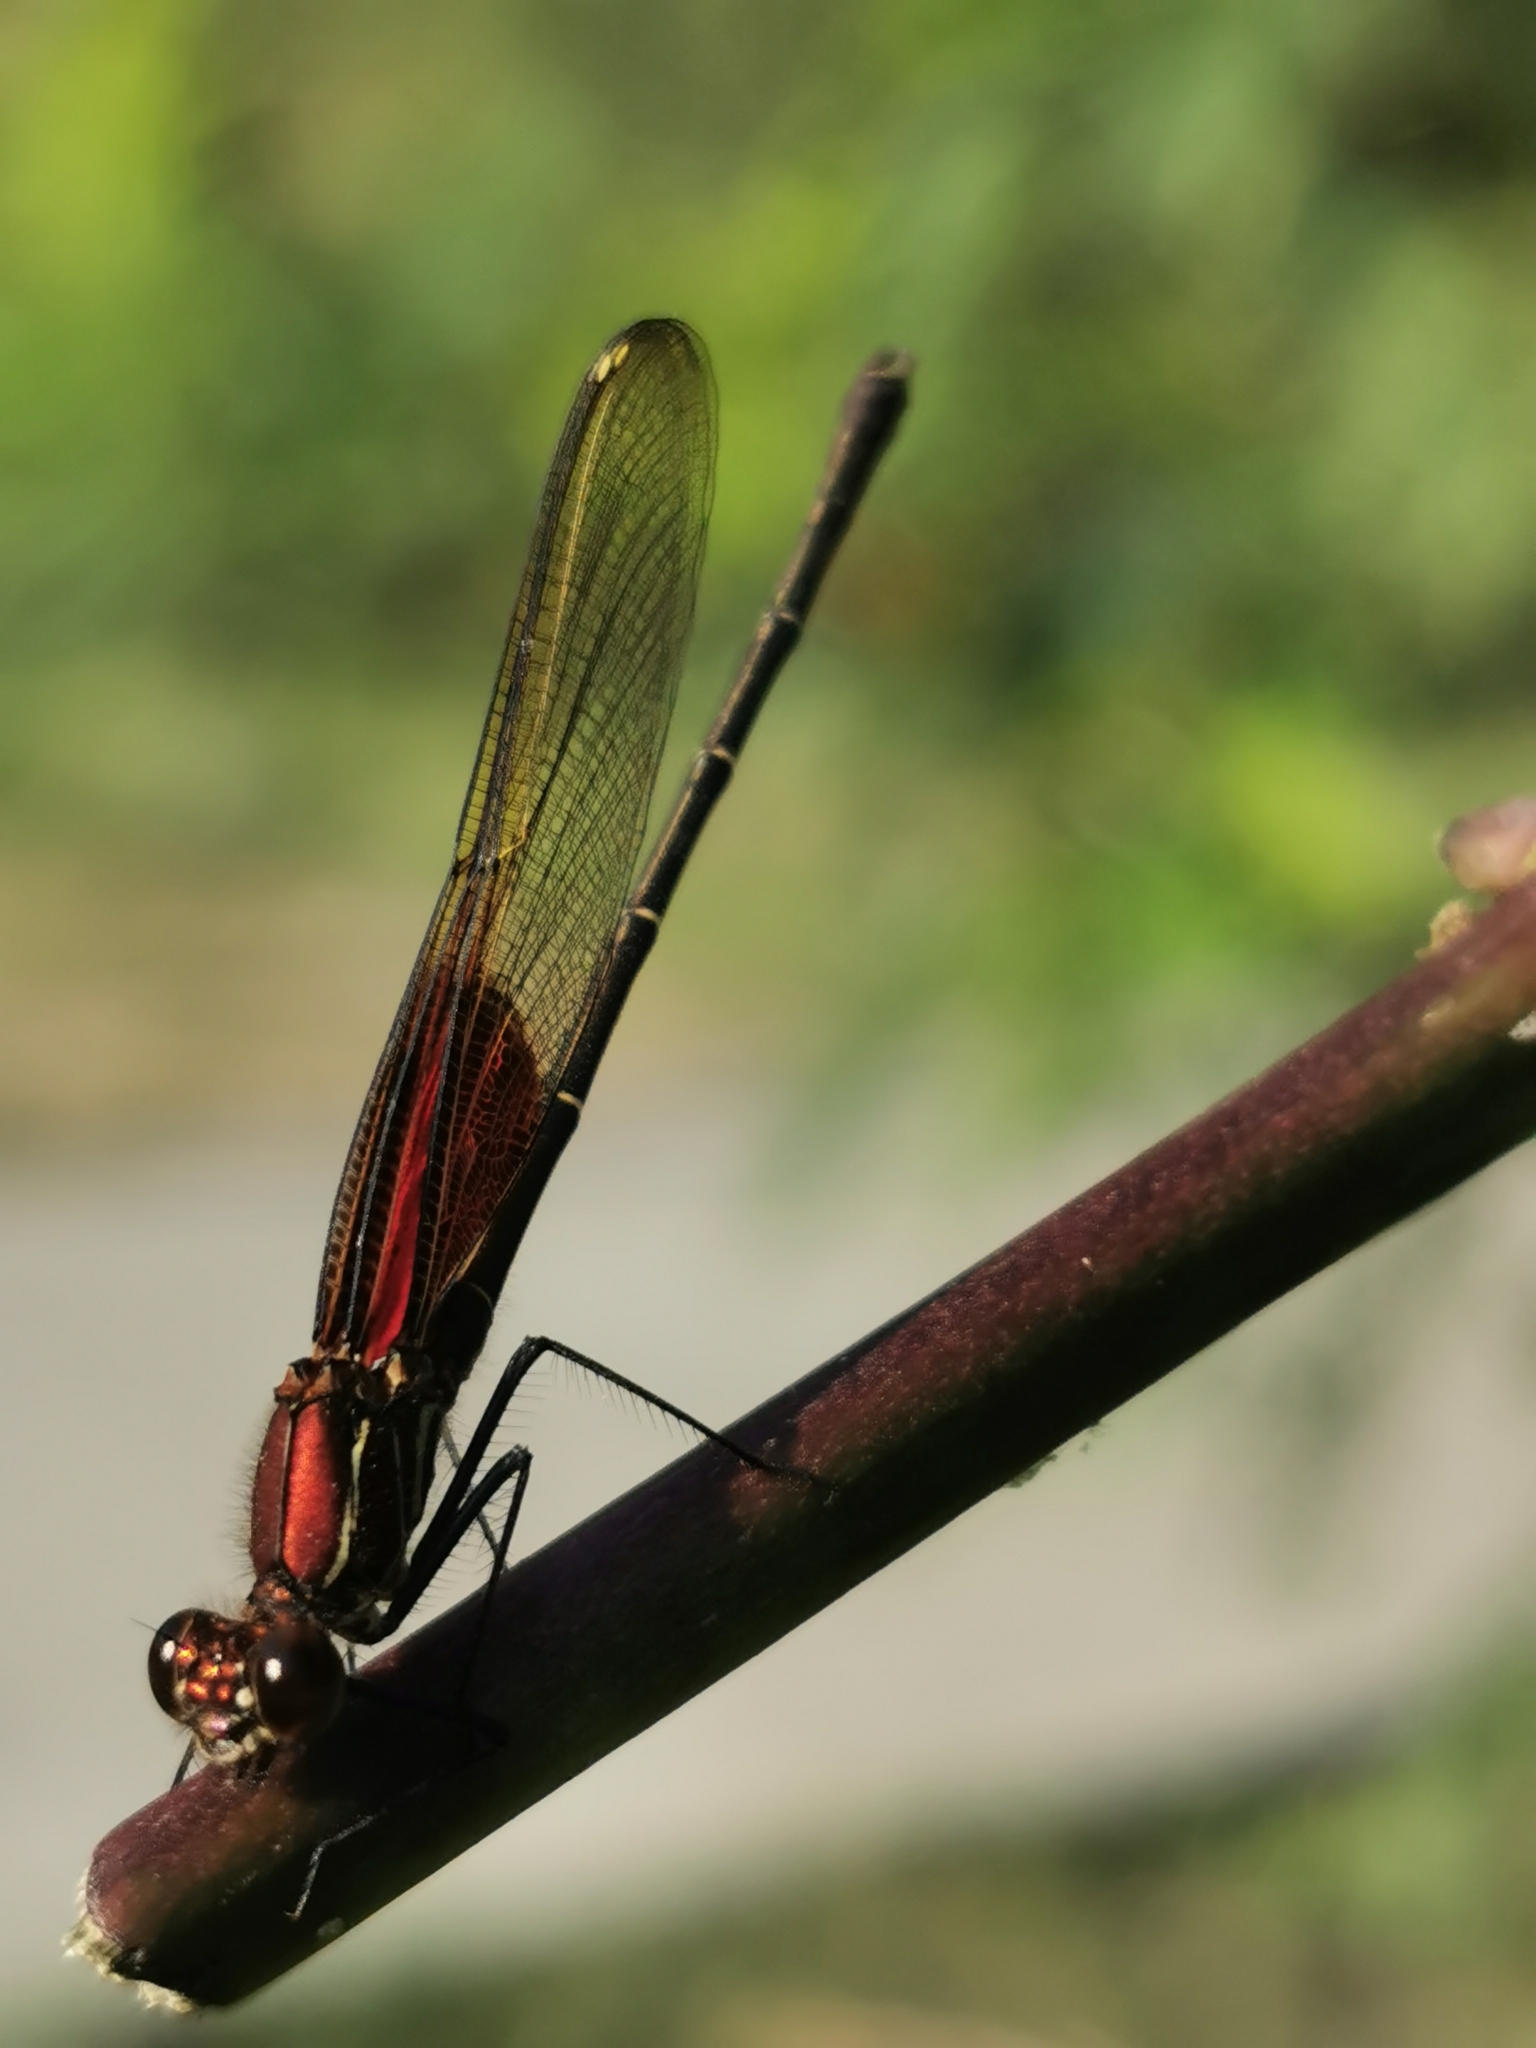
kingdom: Animalia
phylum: Arthropoda
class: Insecta
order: Odonata
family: Calopterygidae
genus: Hetaerina
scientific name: Hetaerina americana
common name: American rubyspot
